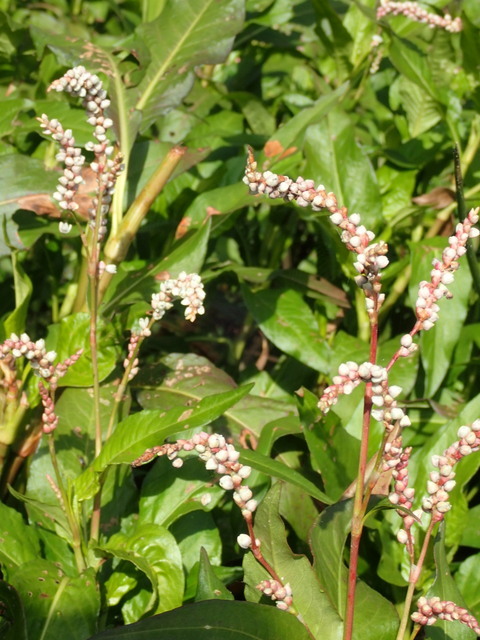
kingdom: Plantae
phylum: Tracheophyta
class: Magnoliopsida
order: Caryophyllales
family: Polygonaceae
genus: Persicaria
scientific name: Persicaria hydropiperoides
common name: Swamp smartweed
